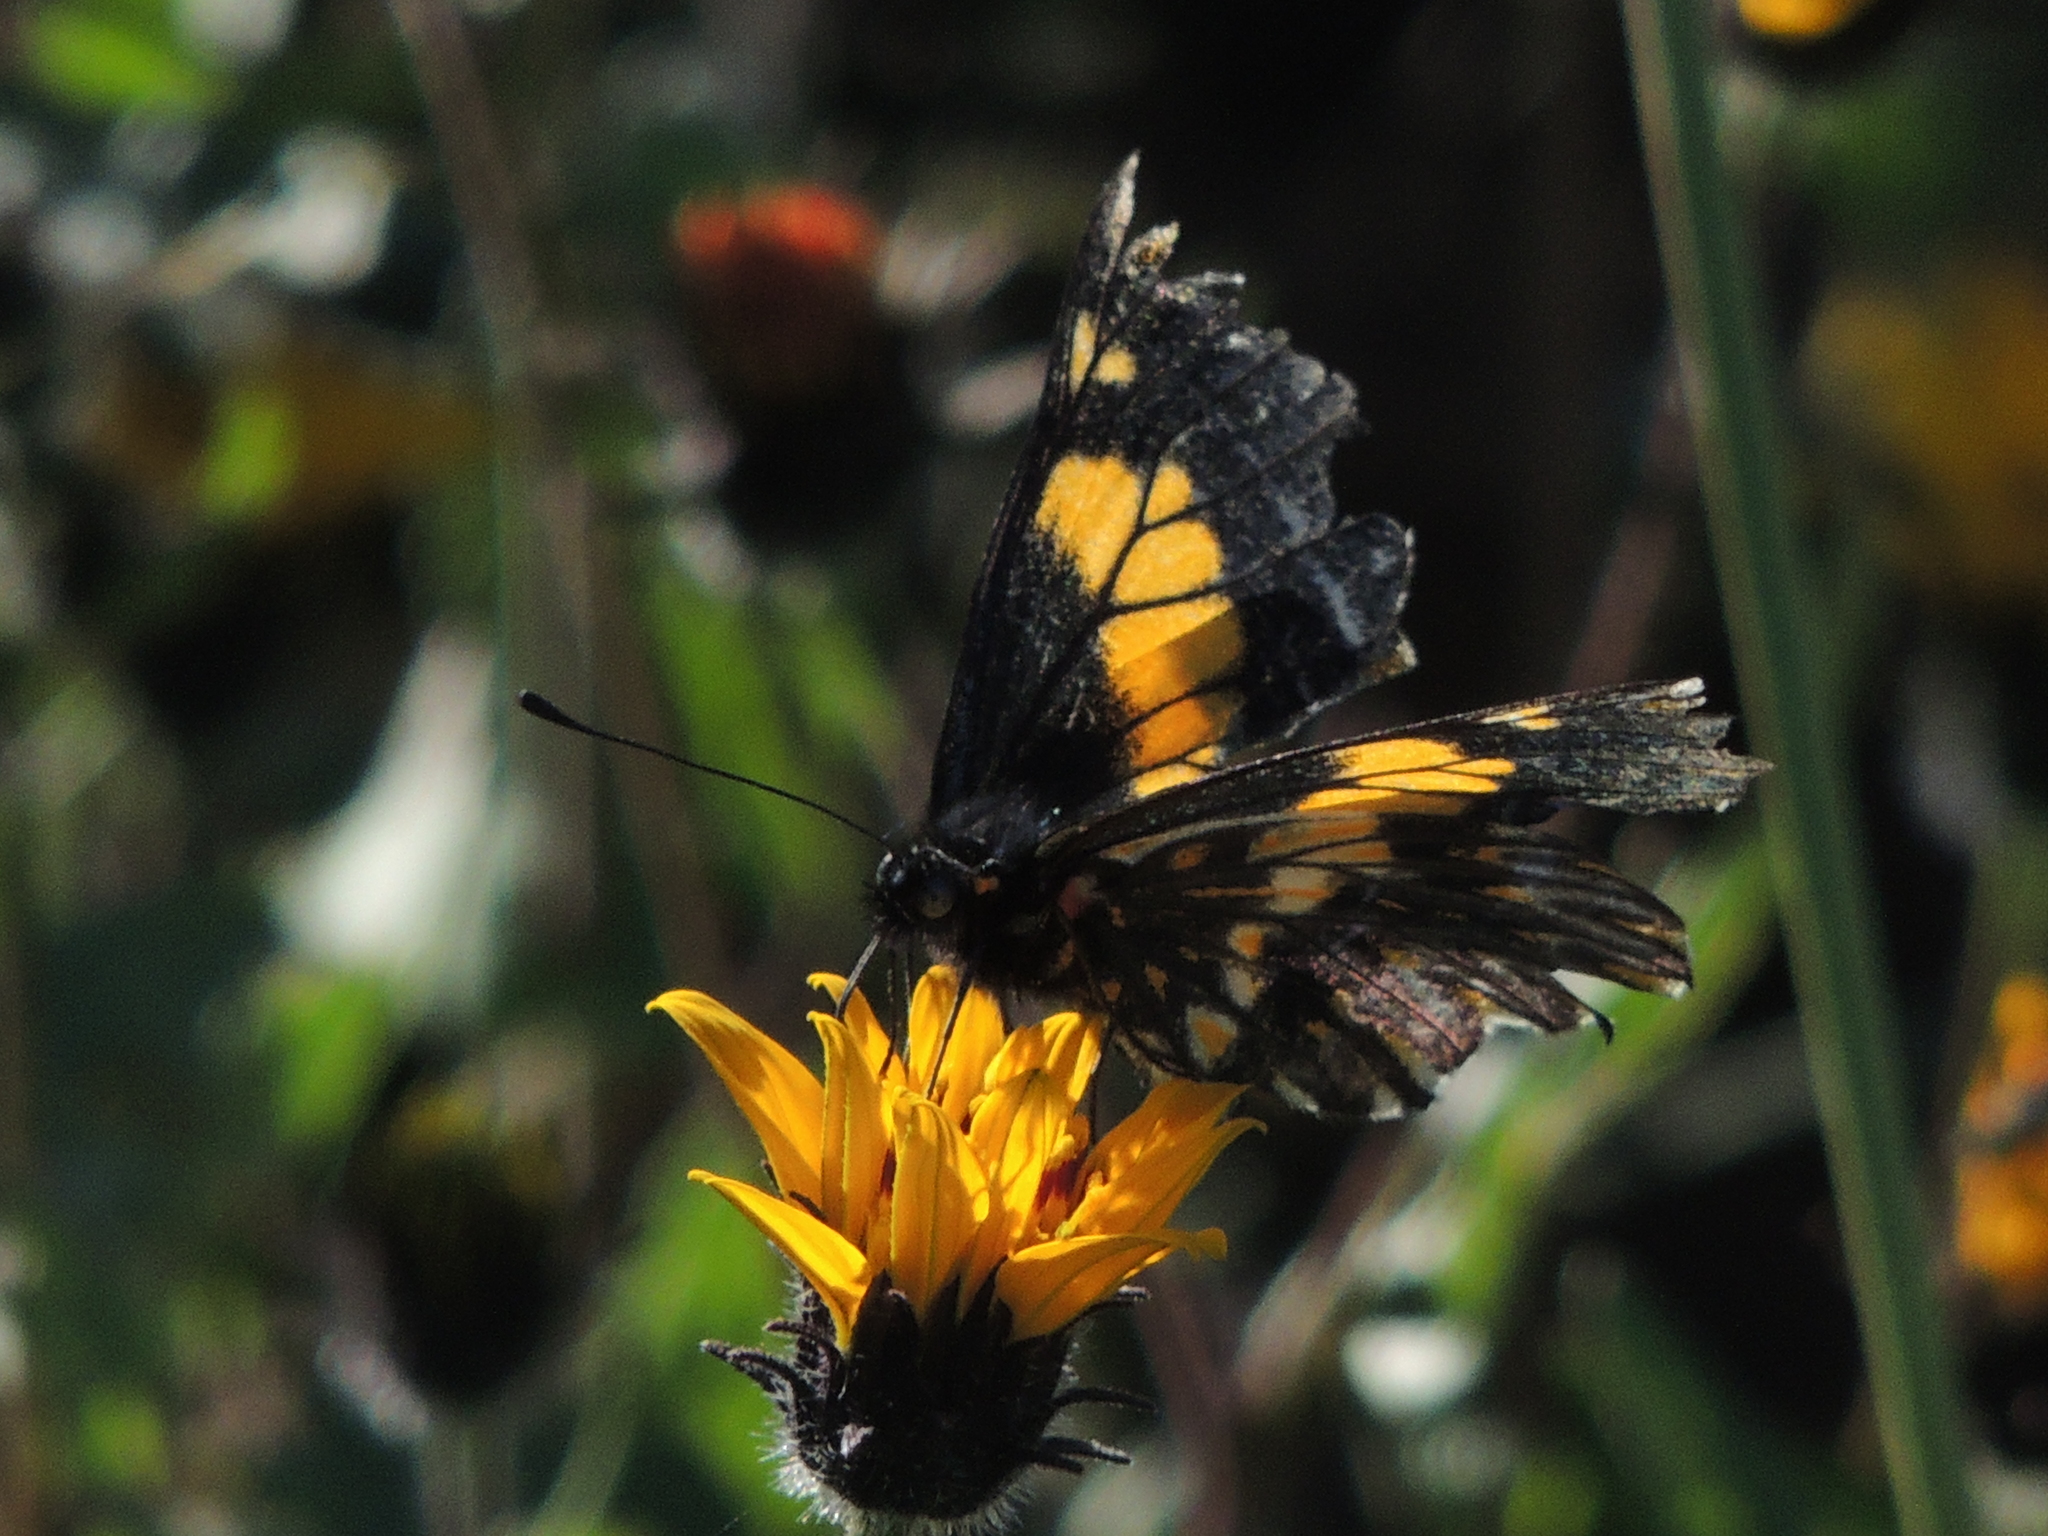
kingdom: Animalia
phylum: Arthropoda
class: Insecta
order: Lepidoptera
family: Pieridae
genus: Archonias
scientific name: Archonias teutila
